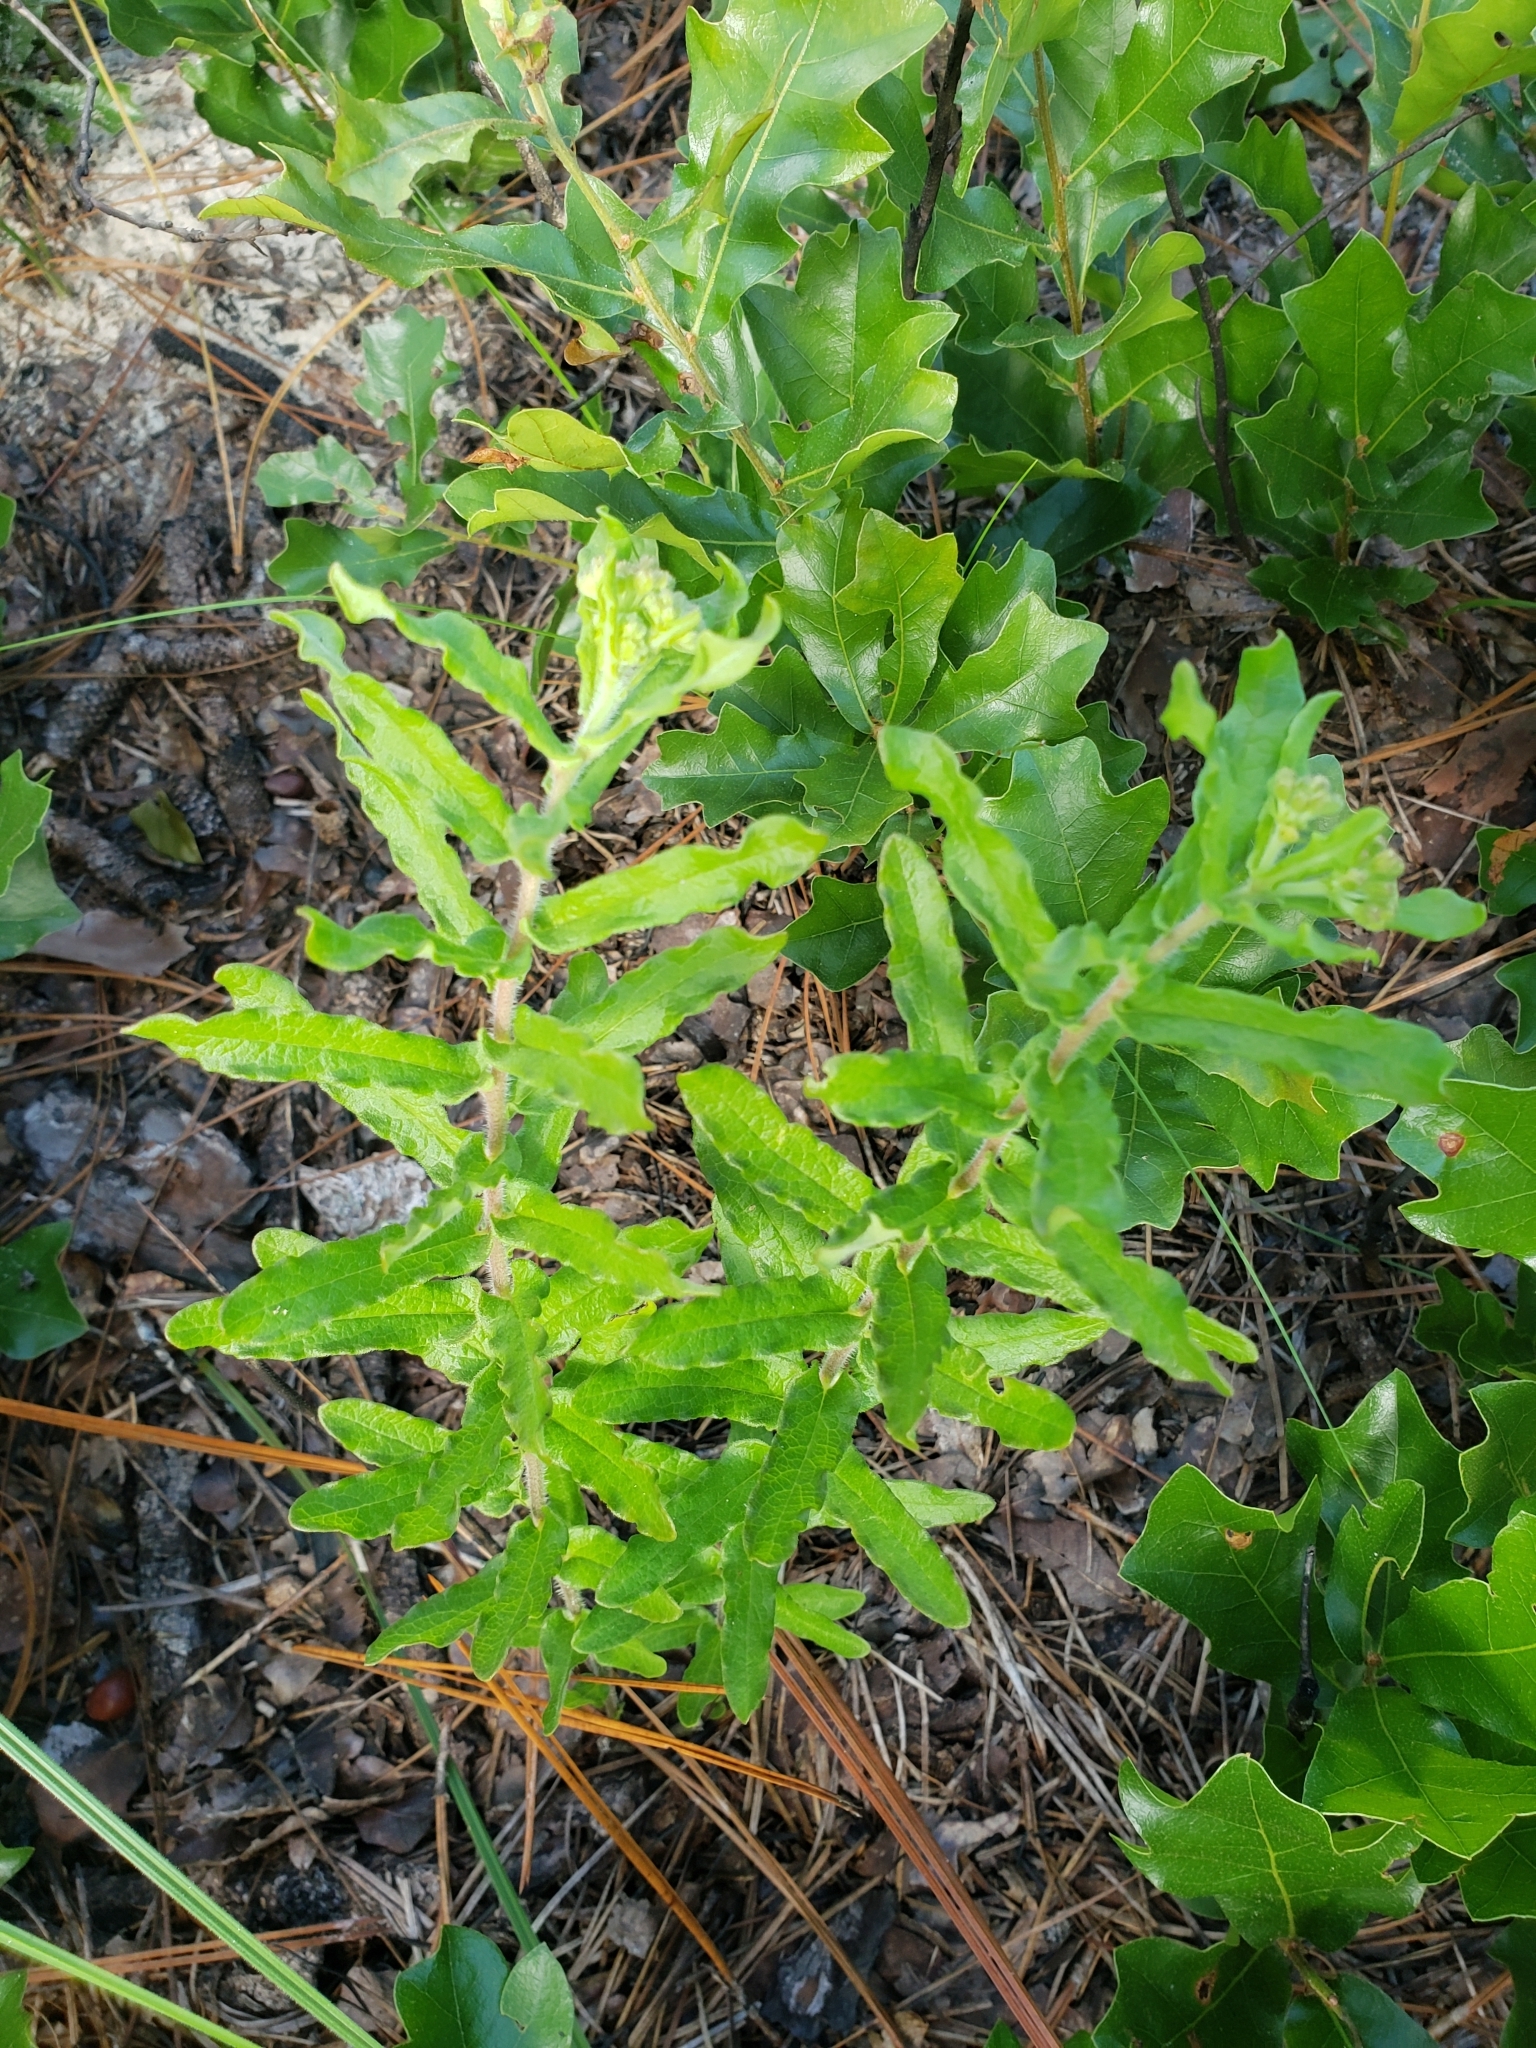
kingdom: Plantae
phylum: Tracheophyta
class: Magnoliopsida
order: Gentianales
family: Apocynaceae
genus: Asclepias
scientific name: Asclepias tuberosa
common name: Butterfly milkweed
